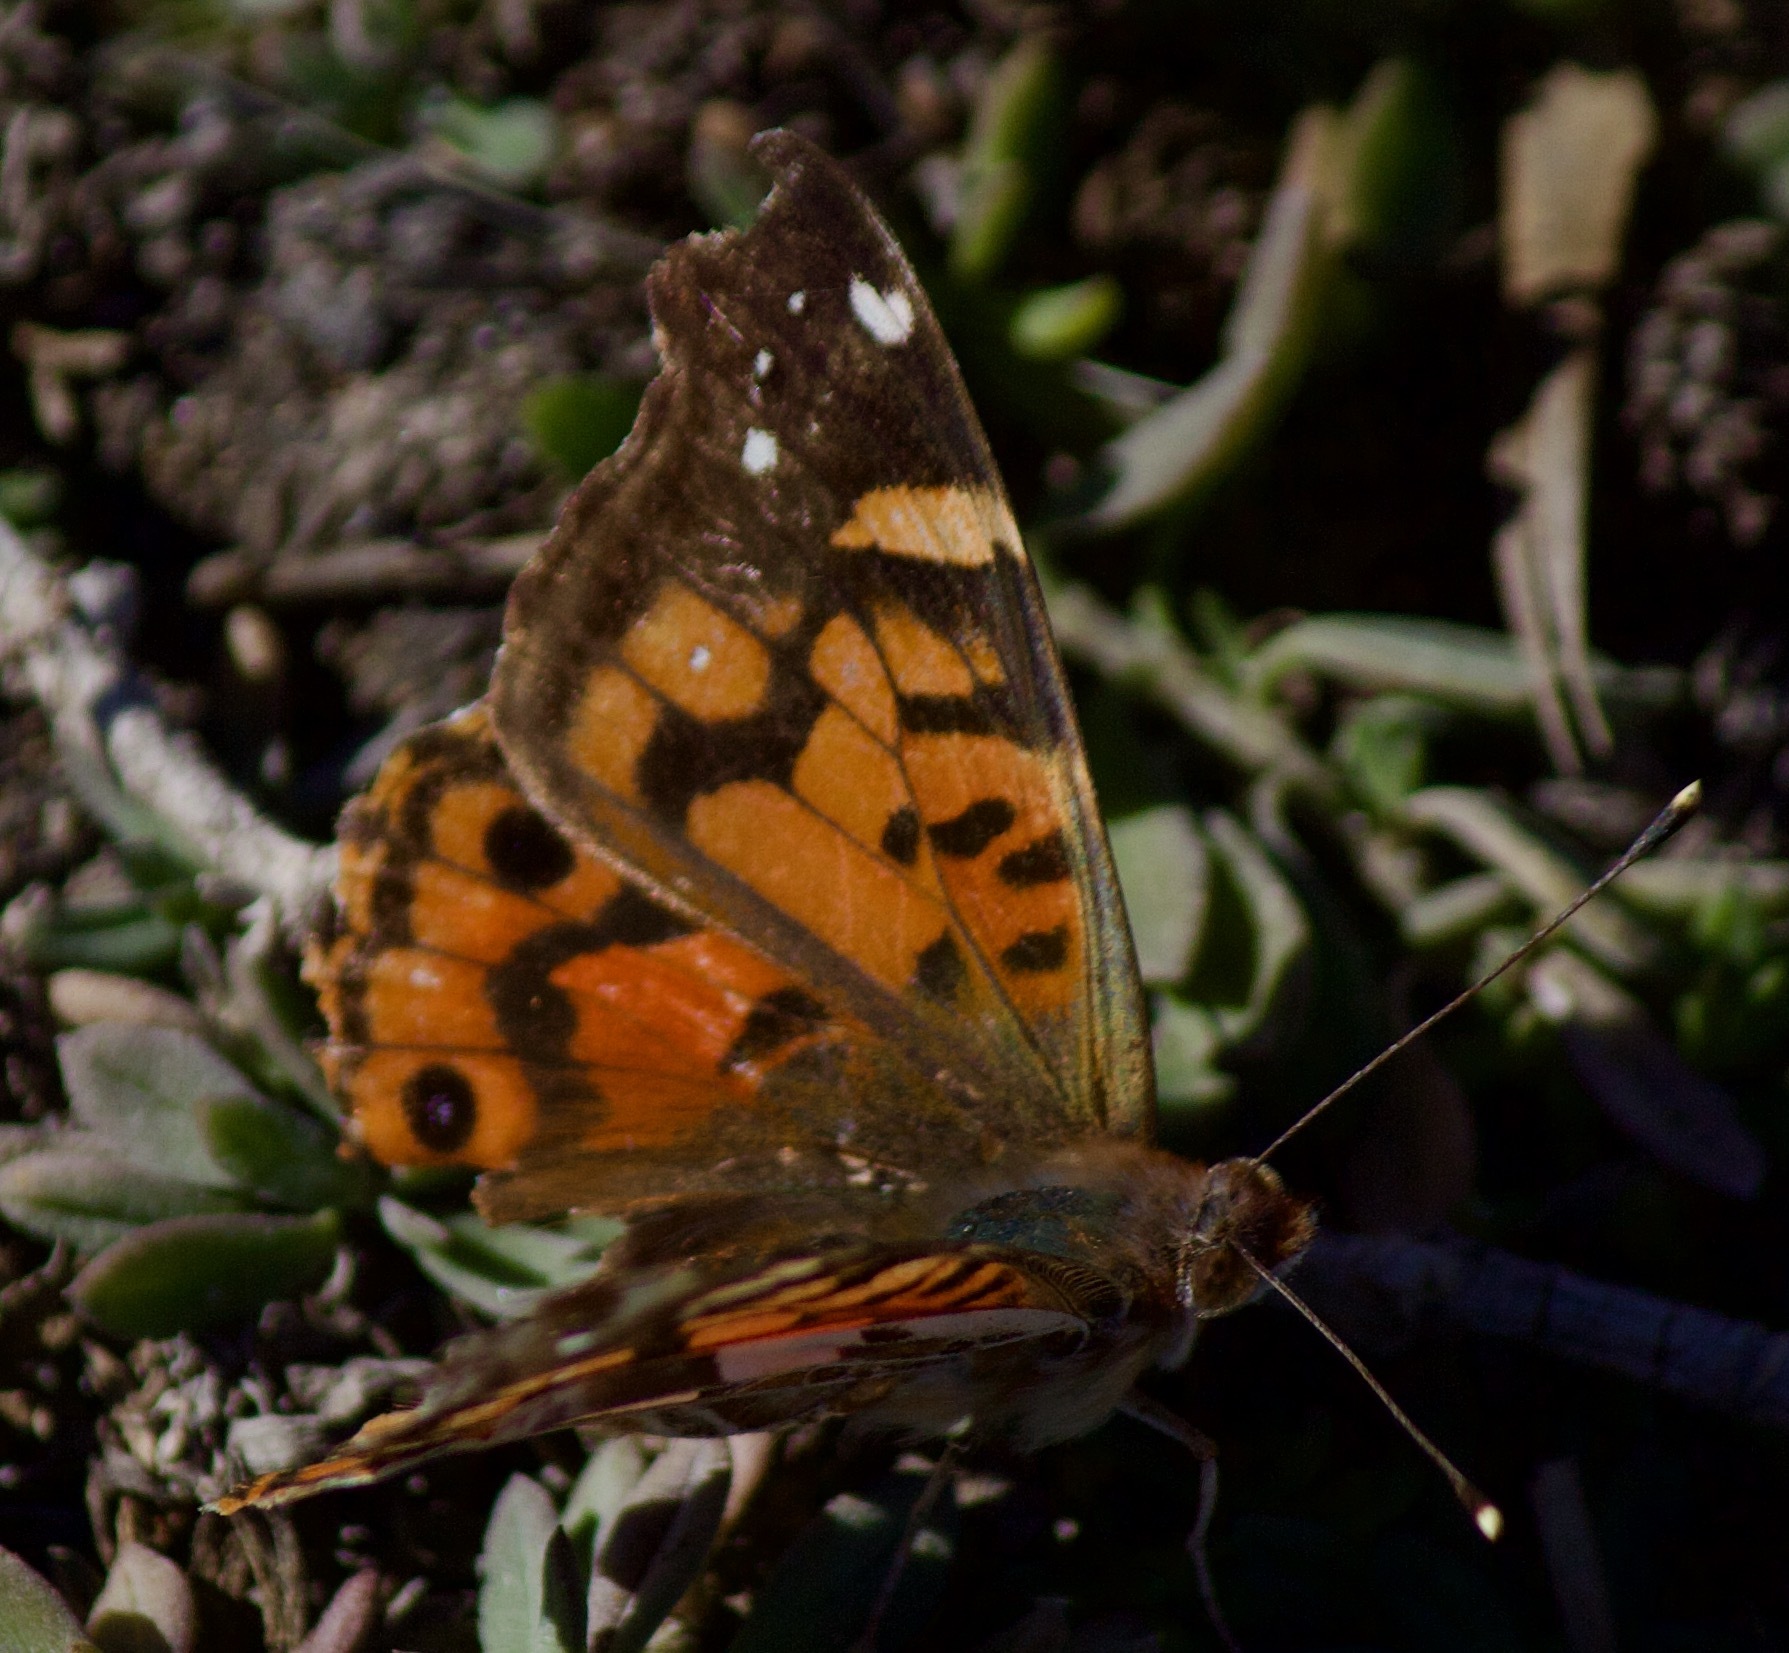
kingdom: Animalia
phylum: Arthropoda
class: Insecta
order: Lepidoptera
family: Nymphalidae
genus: Vanessa
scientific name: Vanessa terpsichore
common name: Chilean lady
